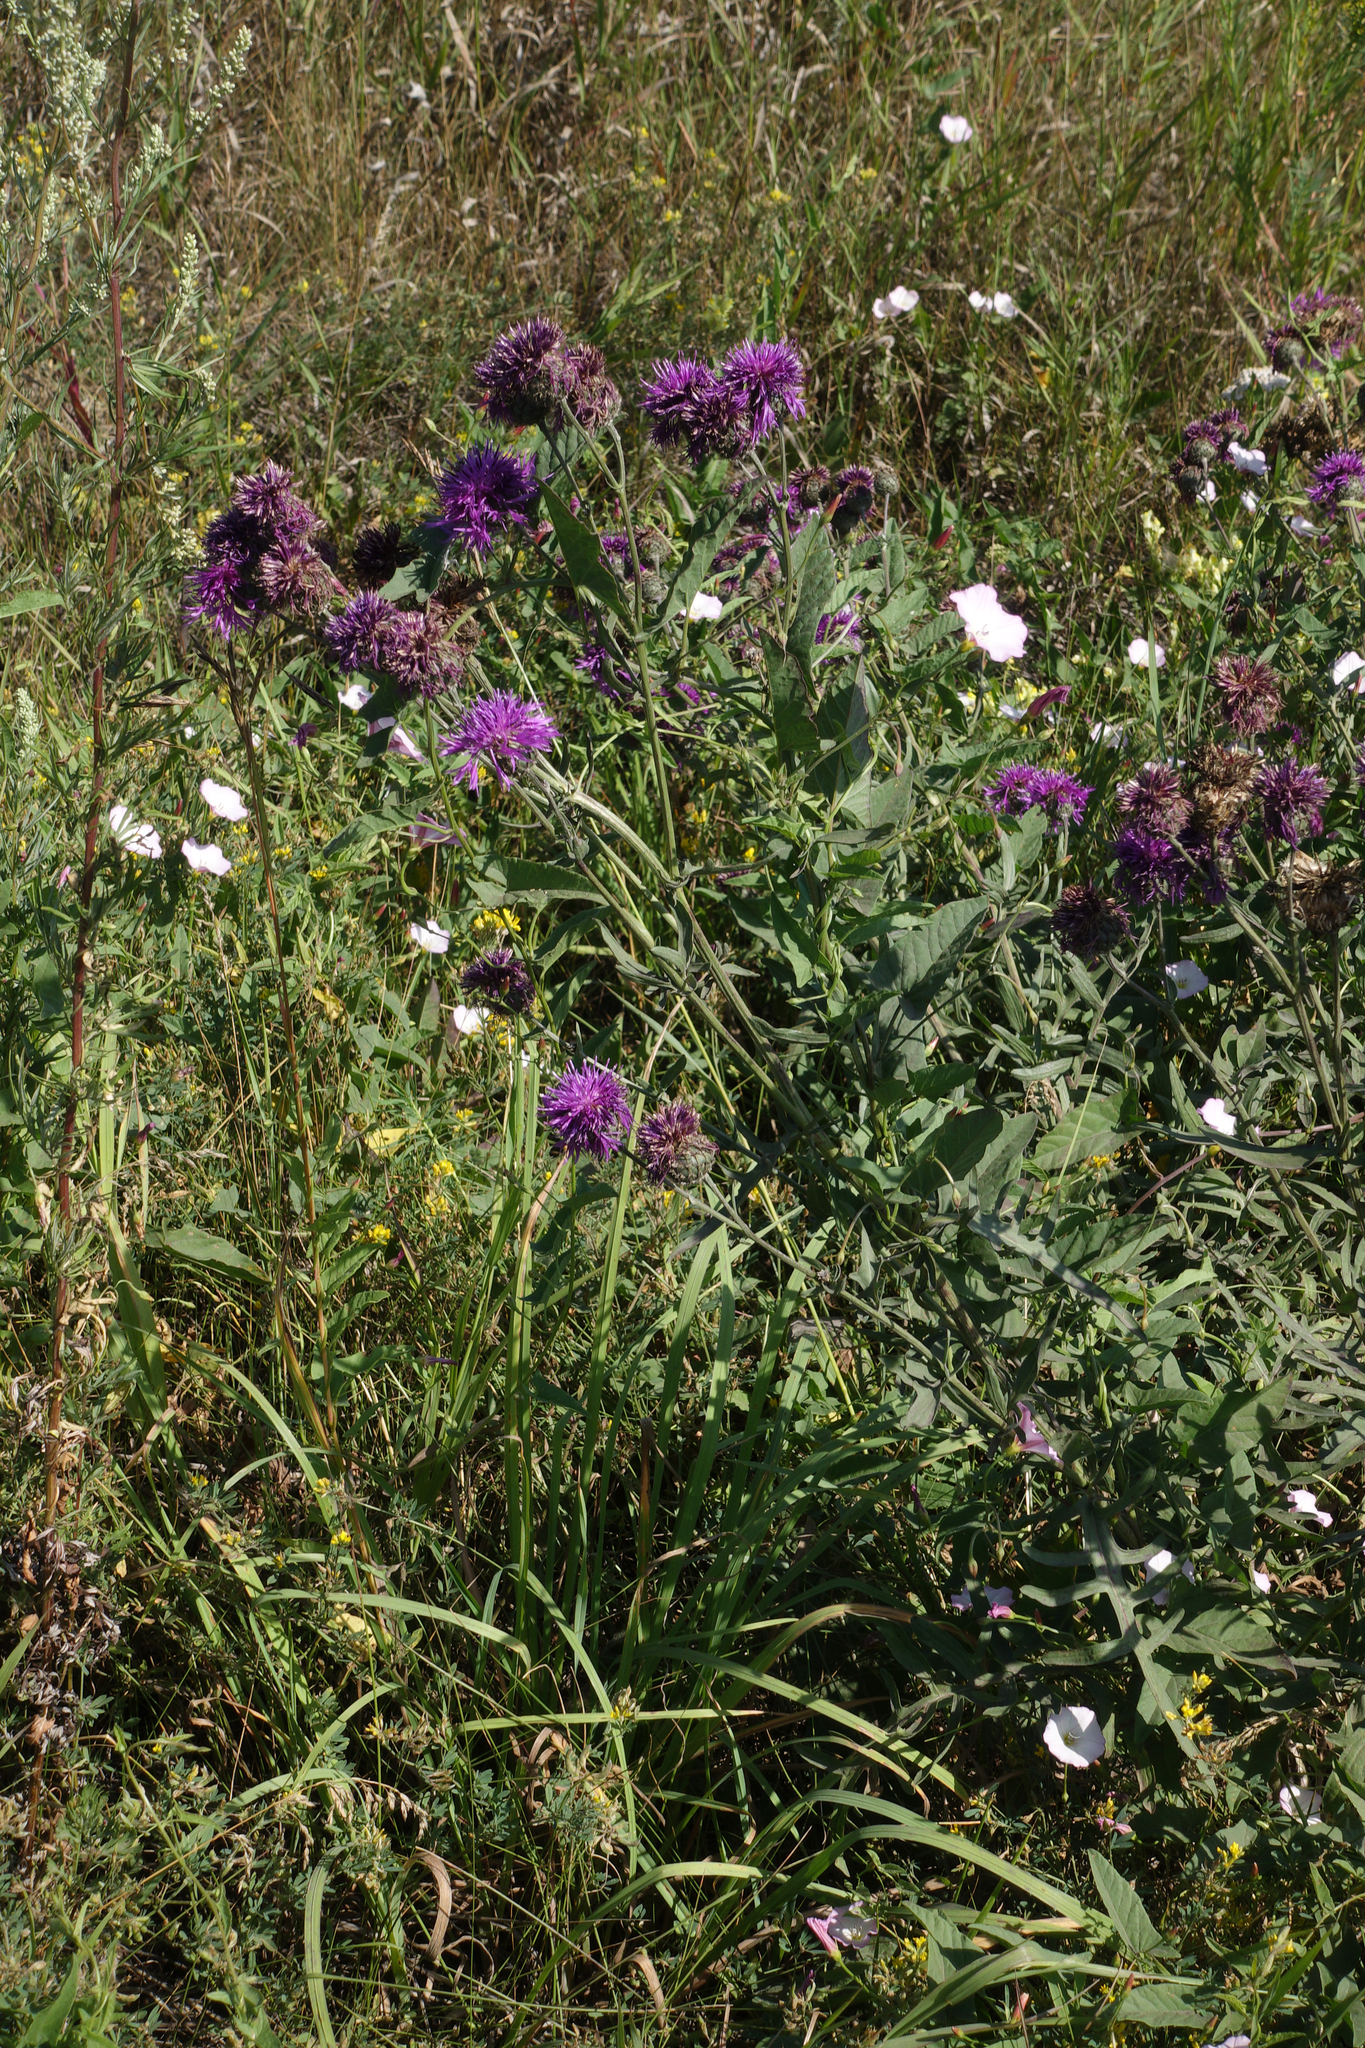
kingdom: Plantae
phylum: Tracheophyta
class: Magnoliopsida
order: Asterales
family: Asteraceae
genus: Centaurea
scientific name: Centaurea scabiosa
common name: Greater knapweed
